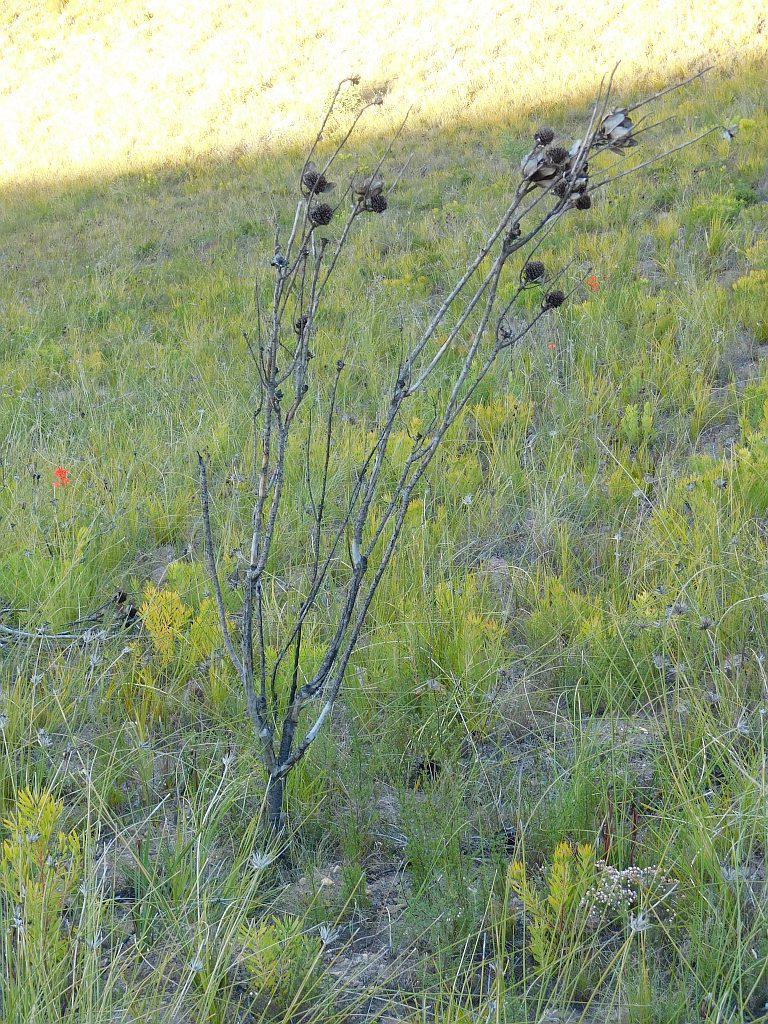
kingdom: Plantae
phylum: Tracheophyta
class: Magnoliopsida
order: Proteales
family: Proteaceae
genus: Leucadendron
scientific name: Leucadendron elimense
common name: Elim conebush
